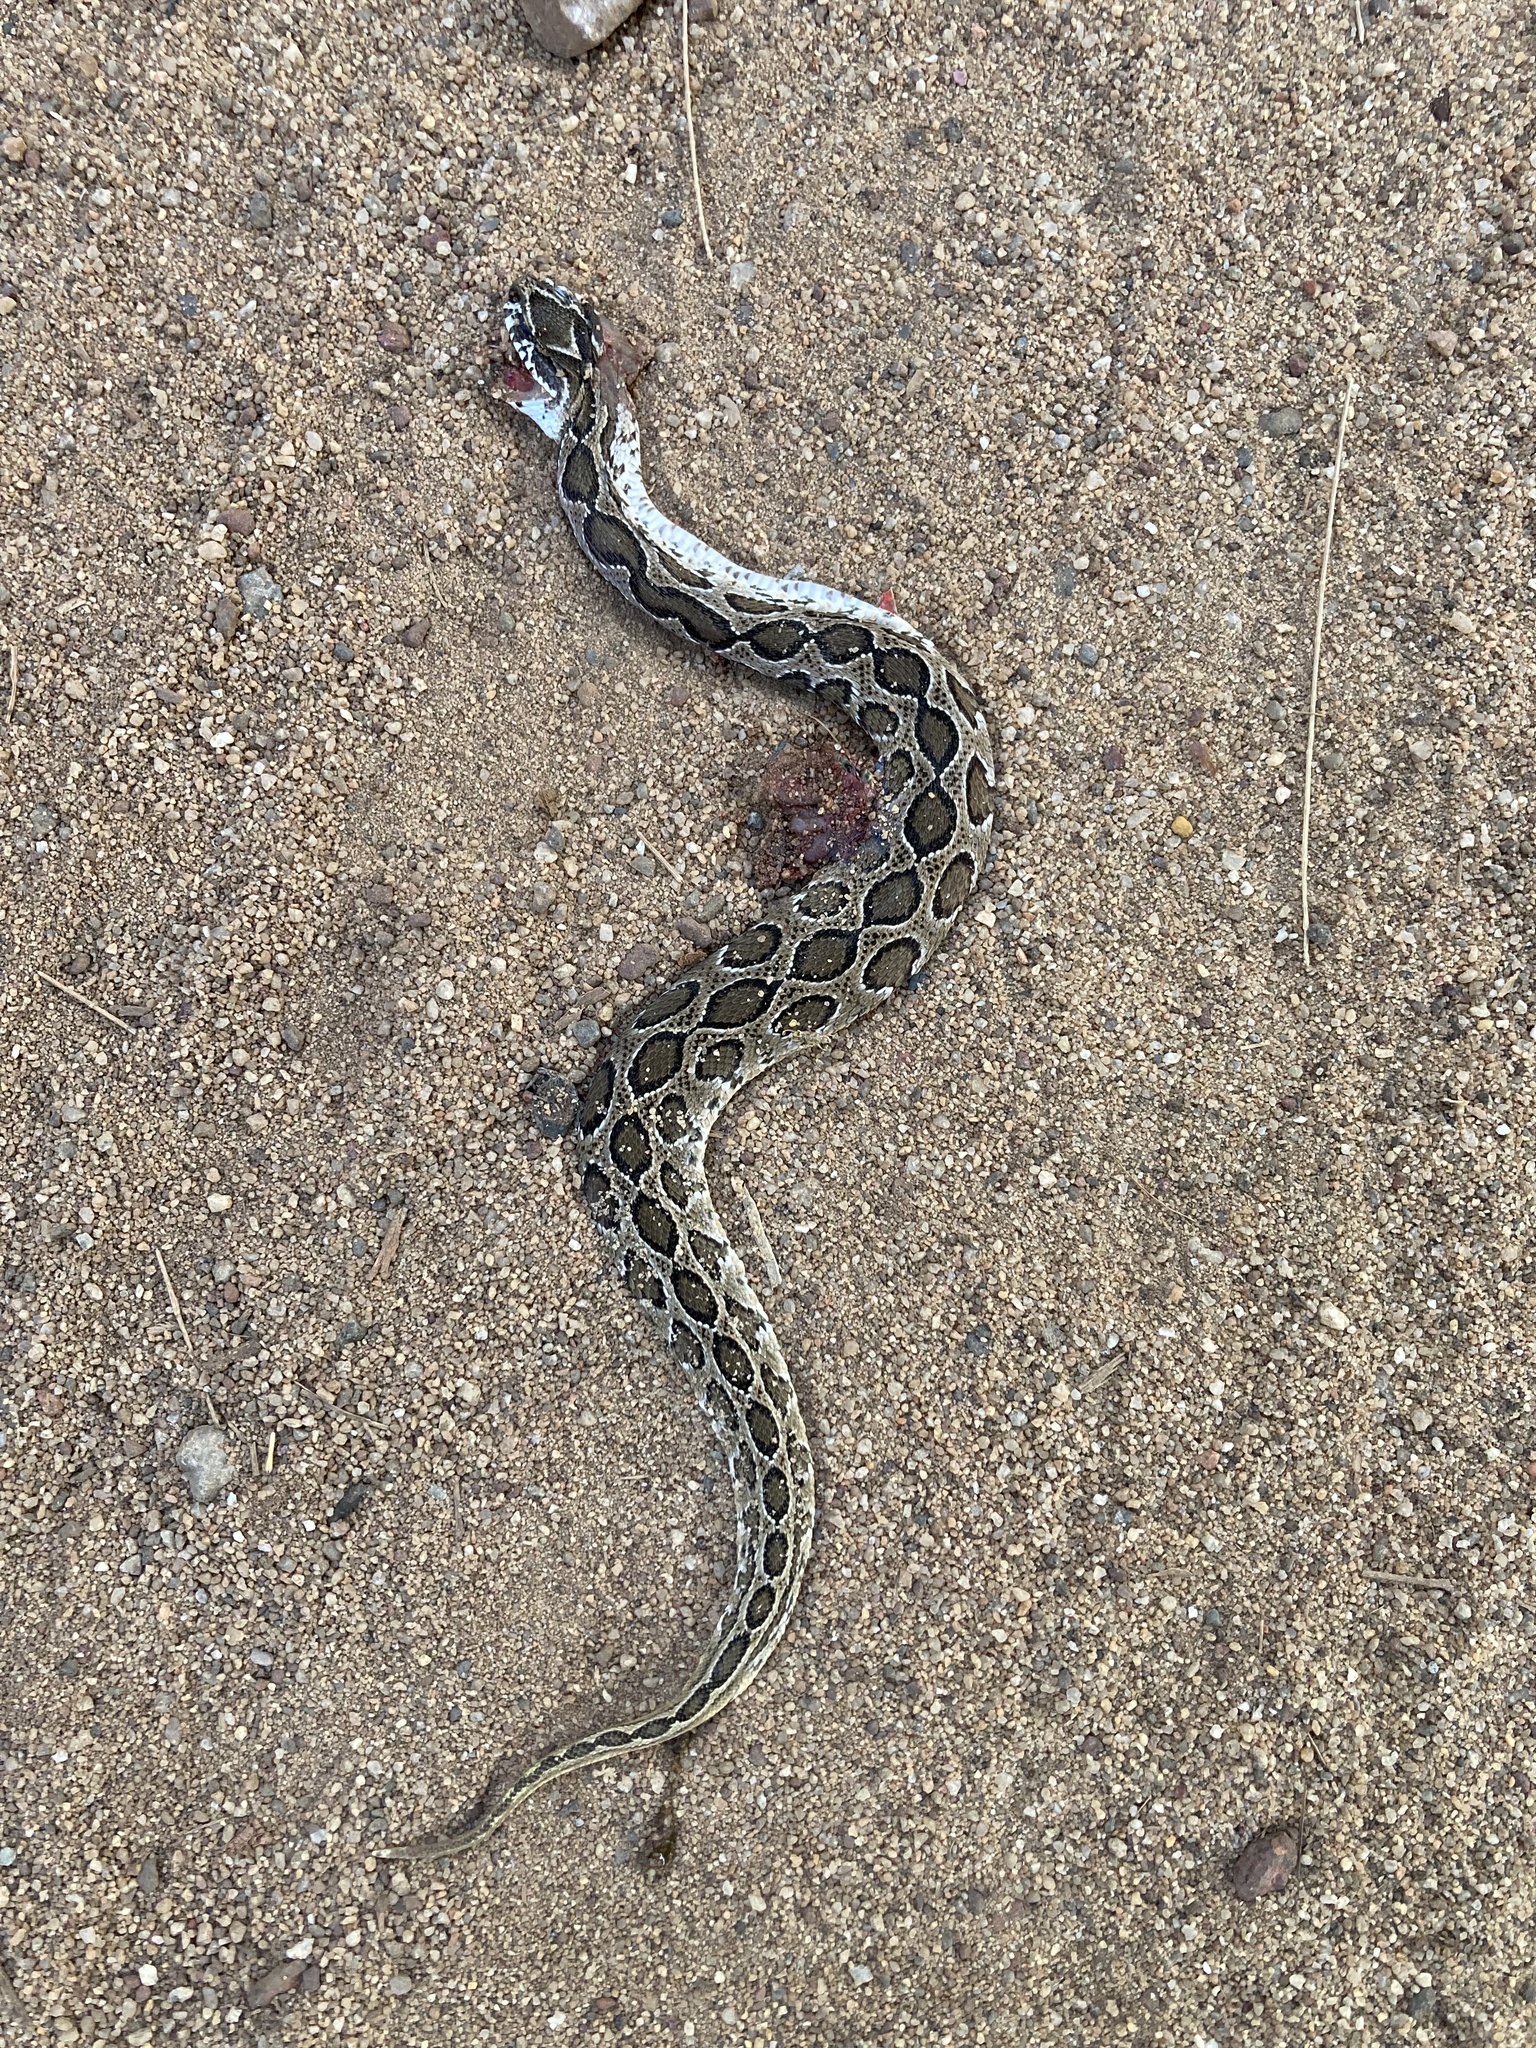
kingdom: Animalia
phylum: Chordata
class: Squamata
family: Viperidae
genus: Daboia
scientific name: Daboia russelii
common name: Western russel’s viper
